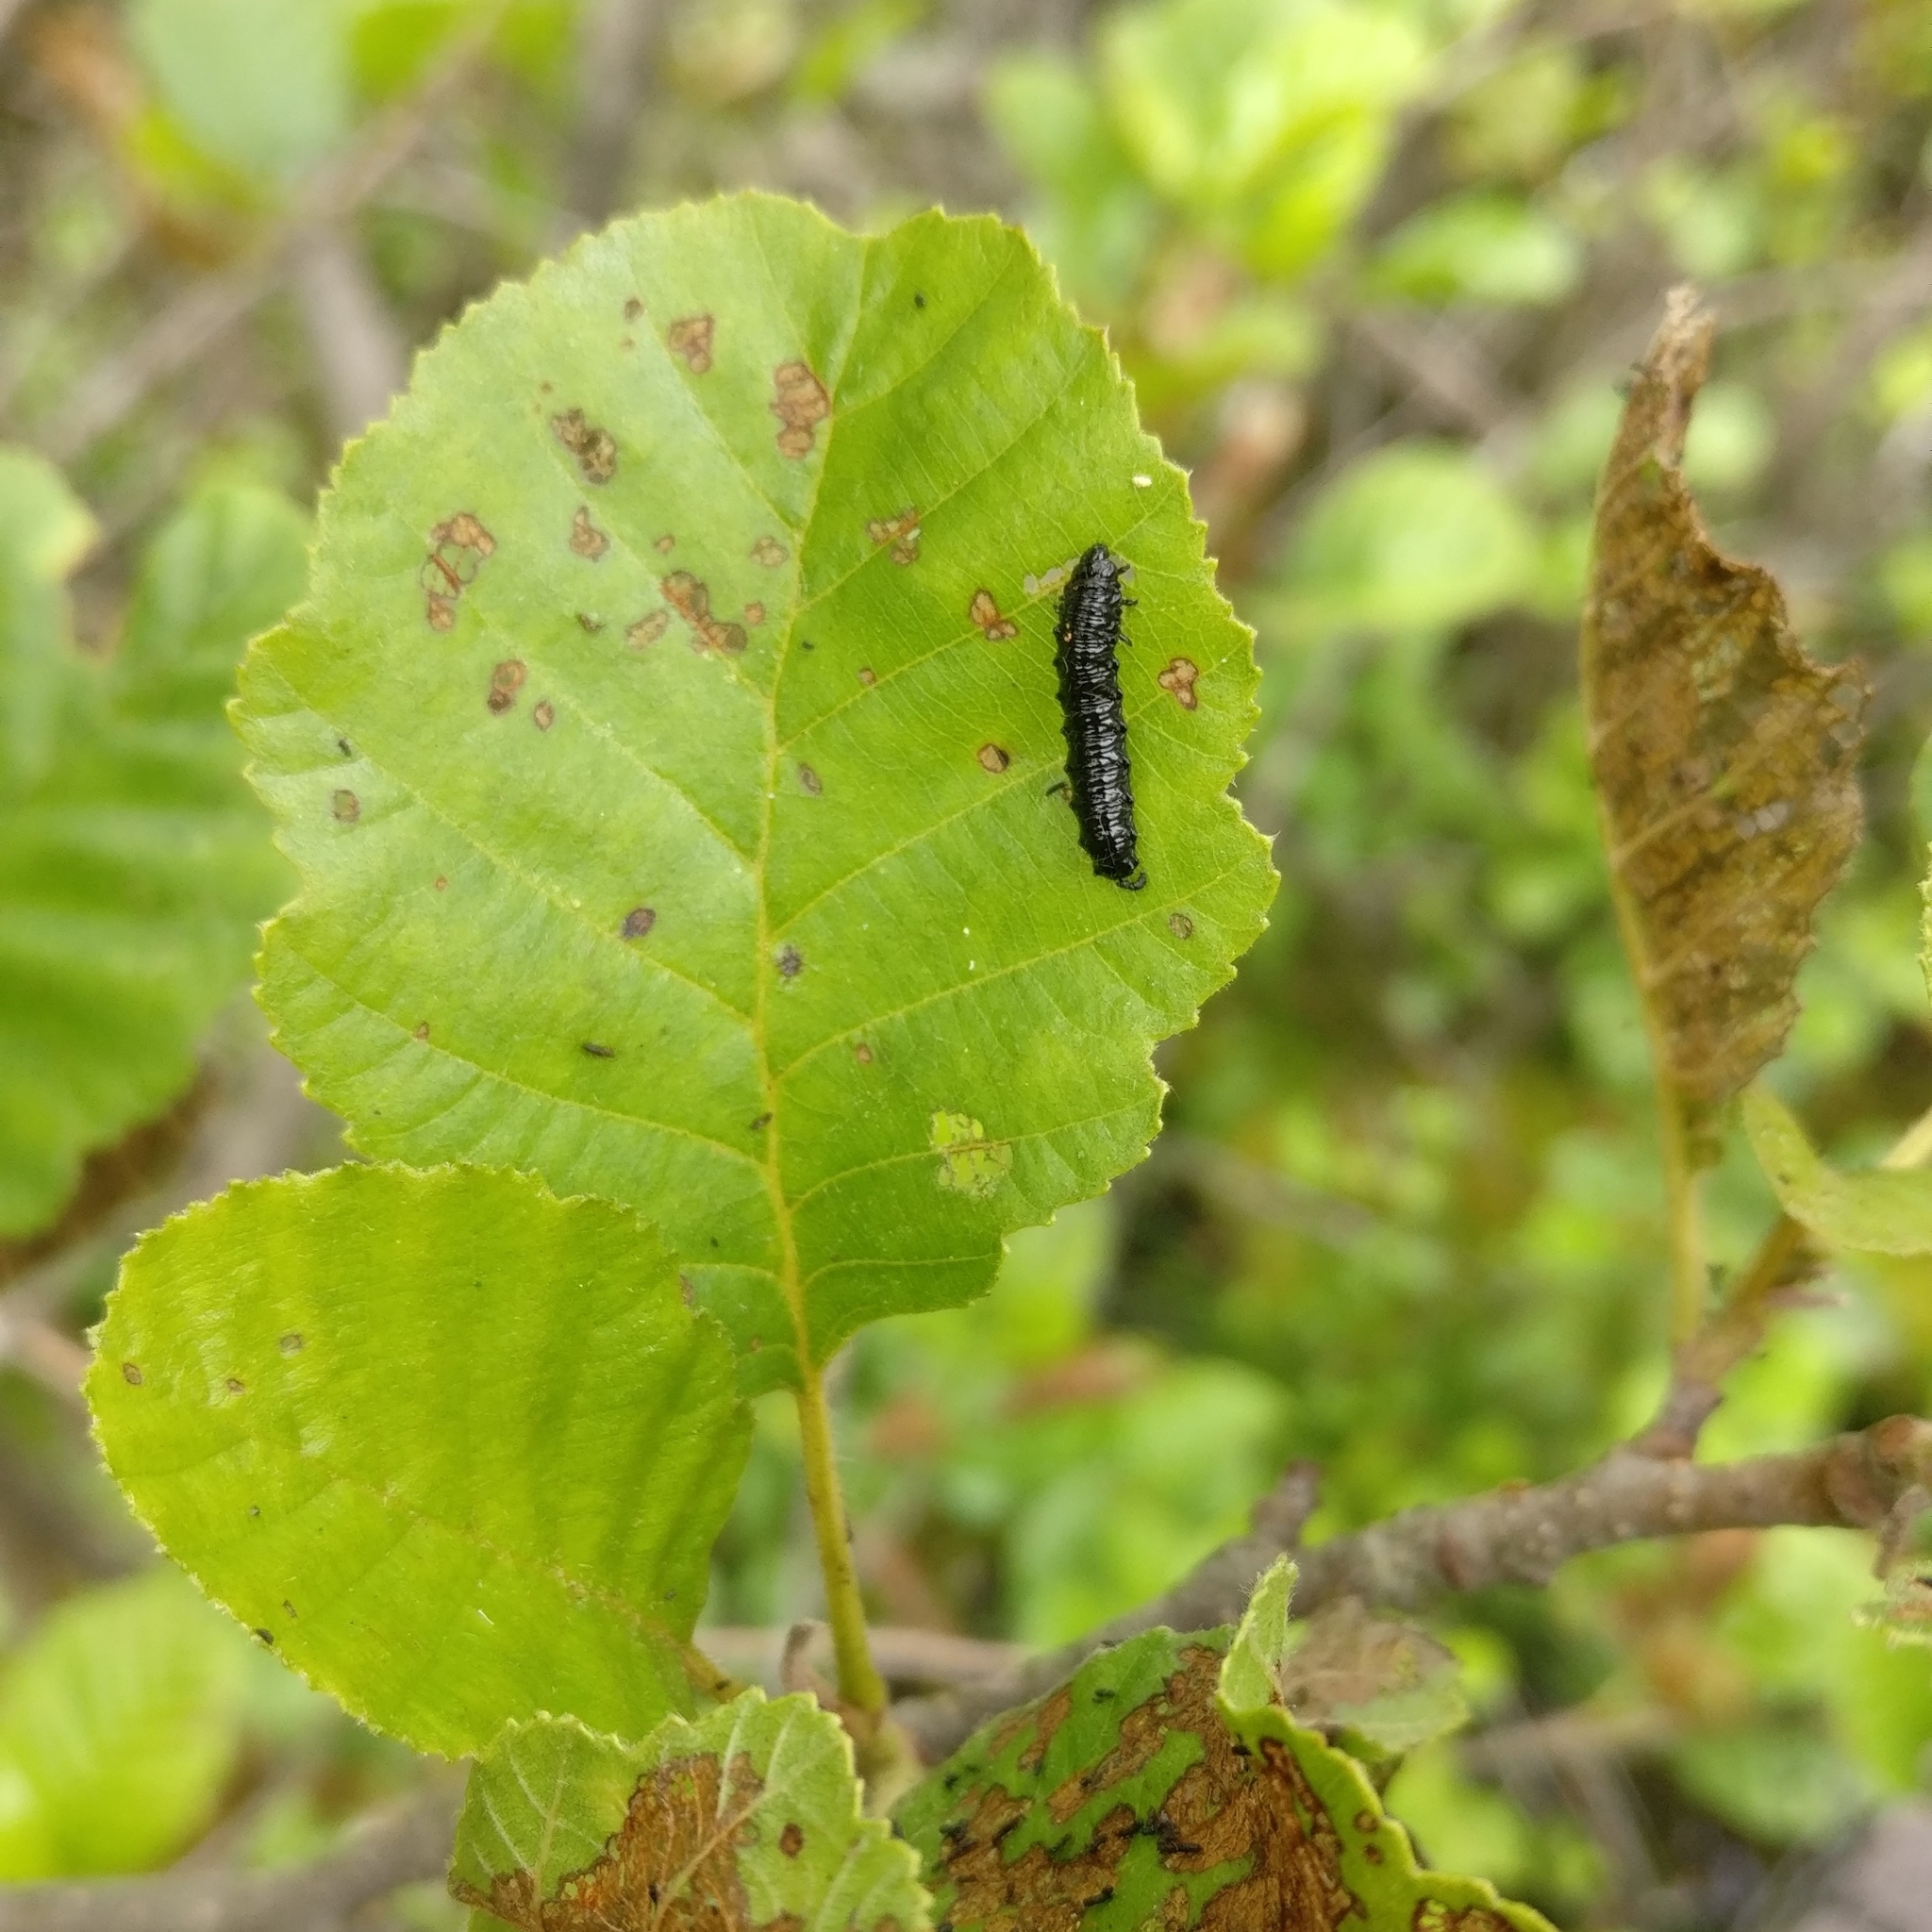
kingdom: Animalia
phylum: Arthropoda
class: Insecta
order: Coleoptera
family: Chrysomelidae
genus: Agelastica
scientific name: Agelastica alni
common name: Alder leaf beetle
